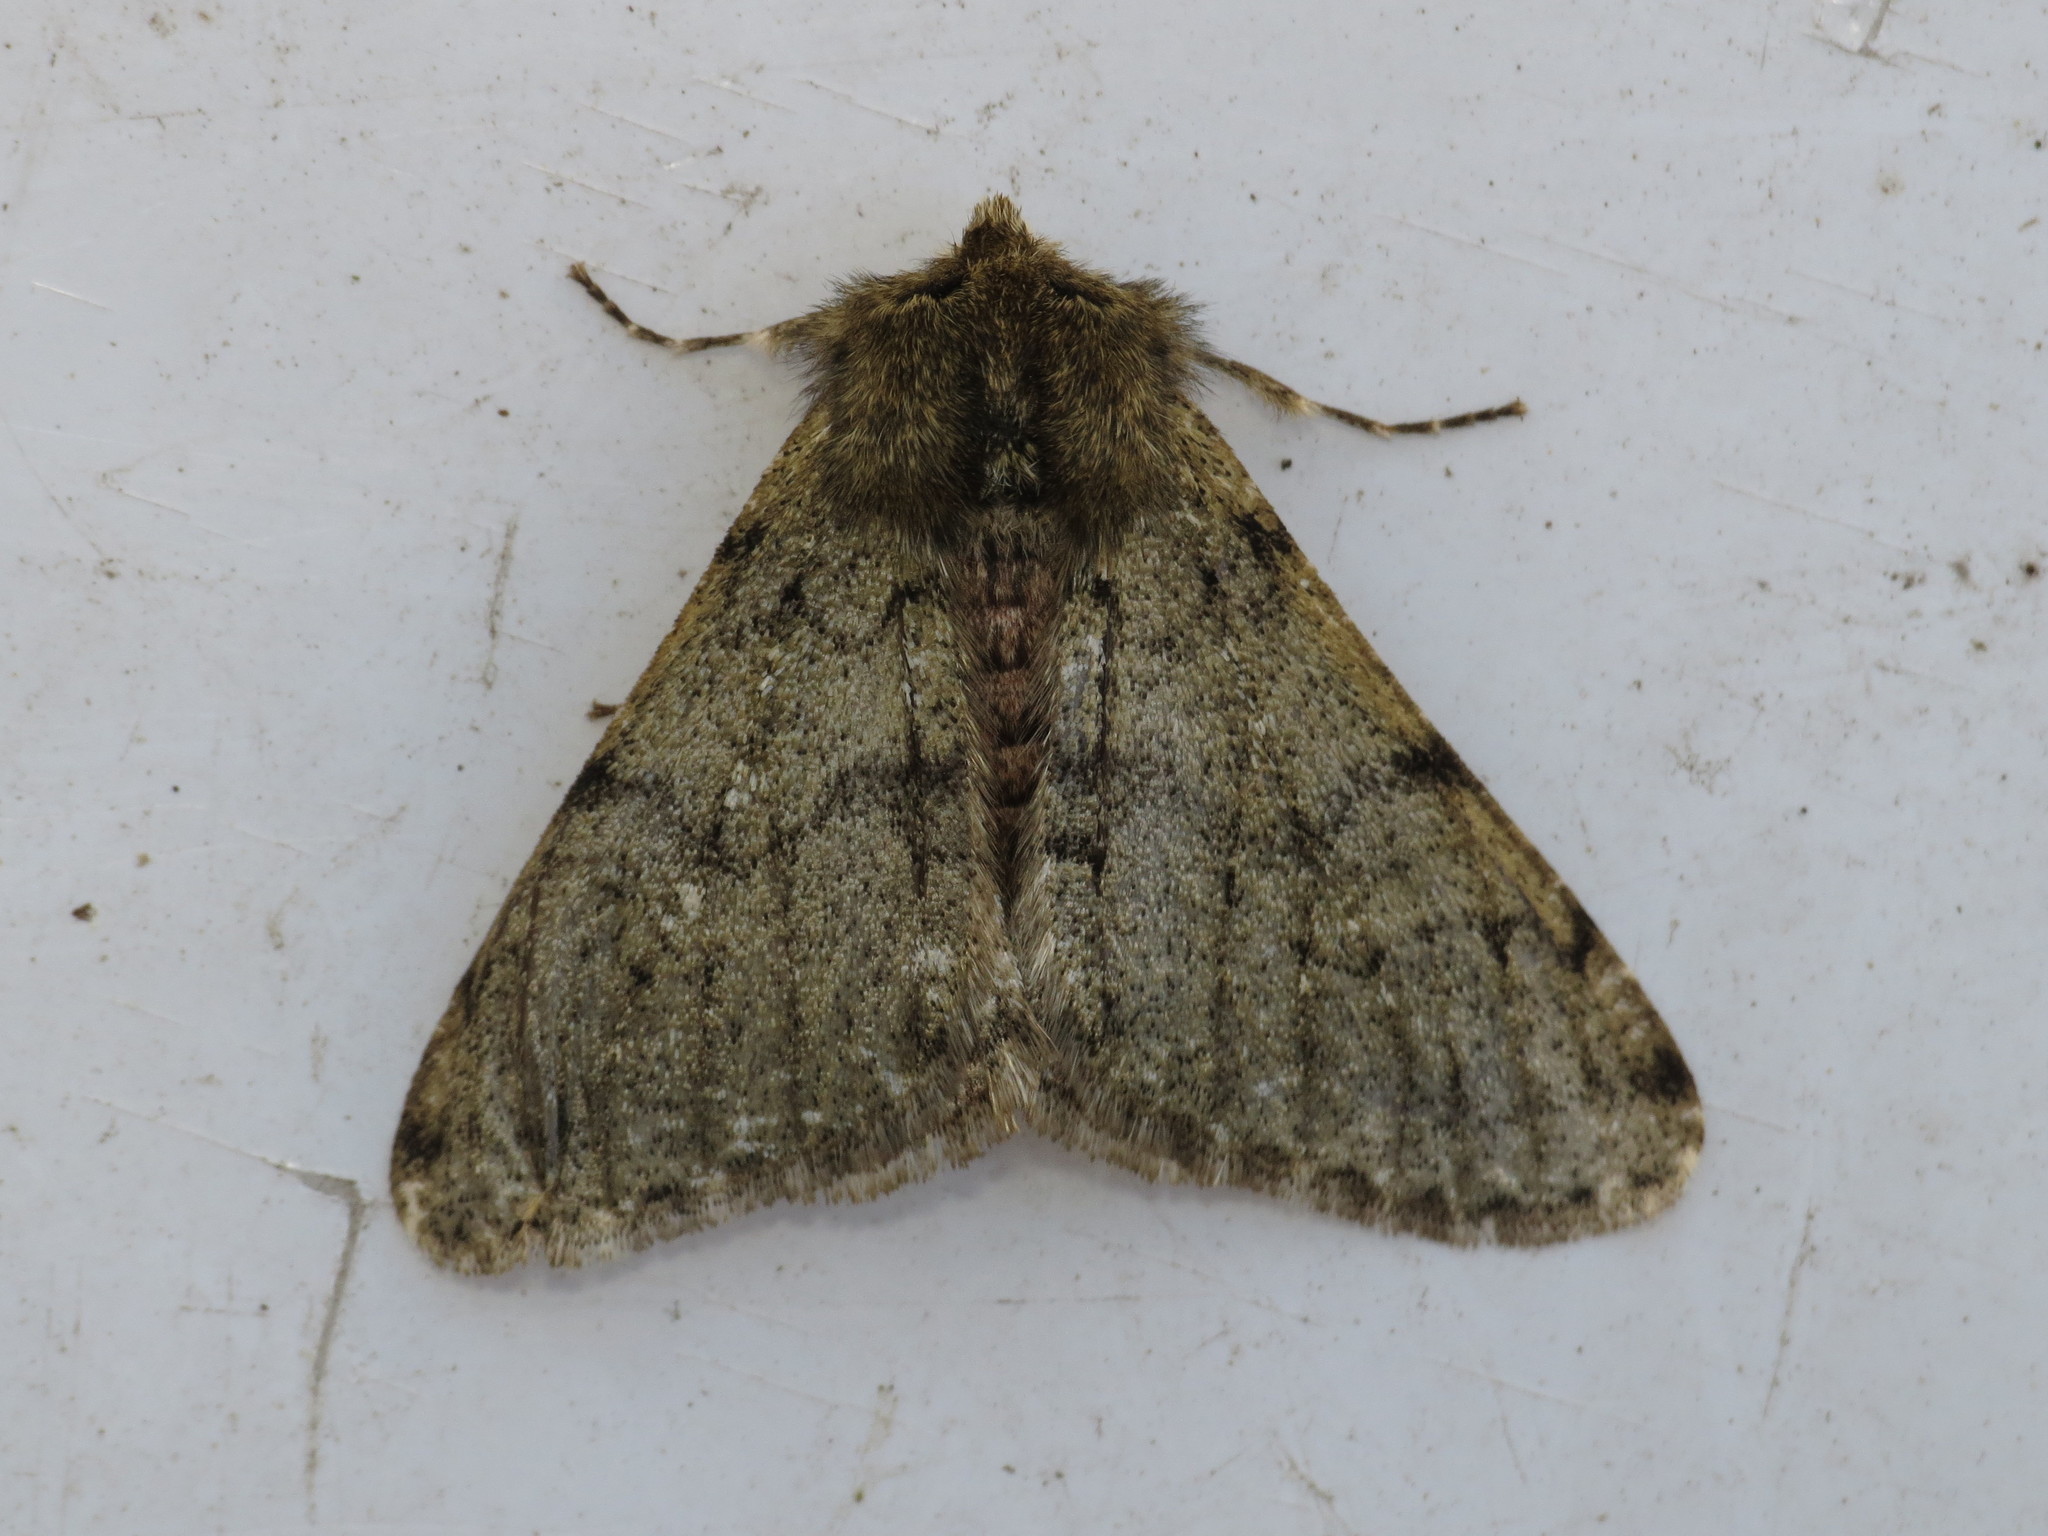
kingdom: Animalia
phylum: Arthropoda
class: Insecta
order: Lepidoptera
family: Geometridae
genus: Phigalia
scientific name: Phigalia pilosaria
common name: Pale brindled beauty
